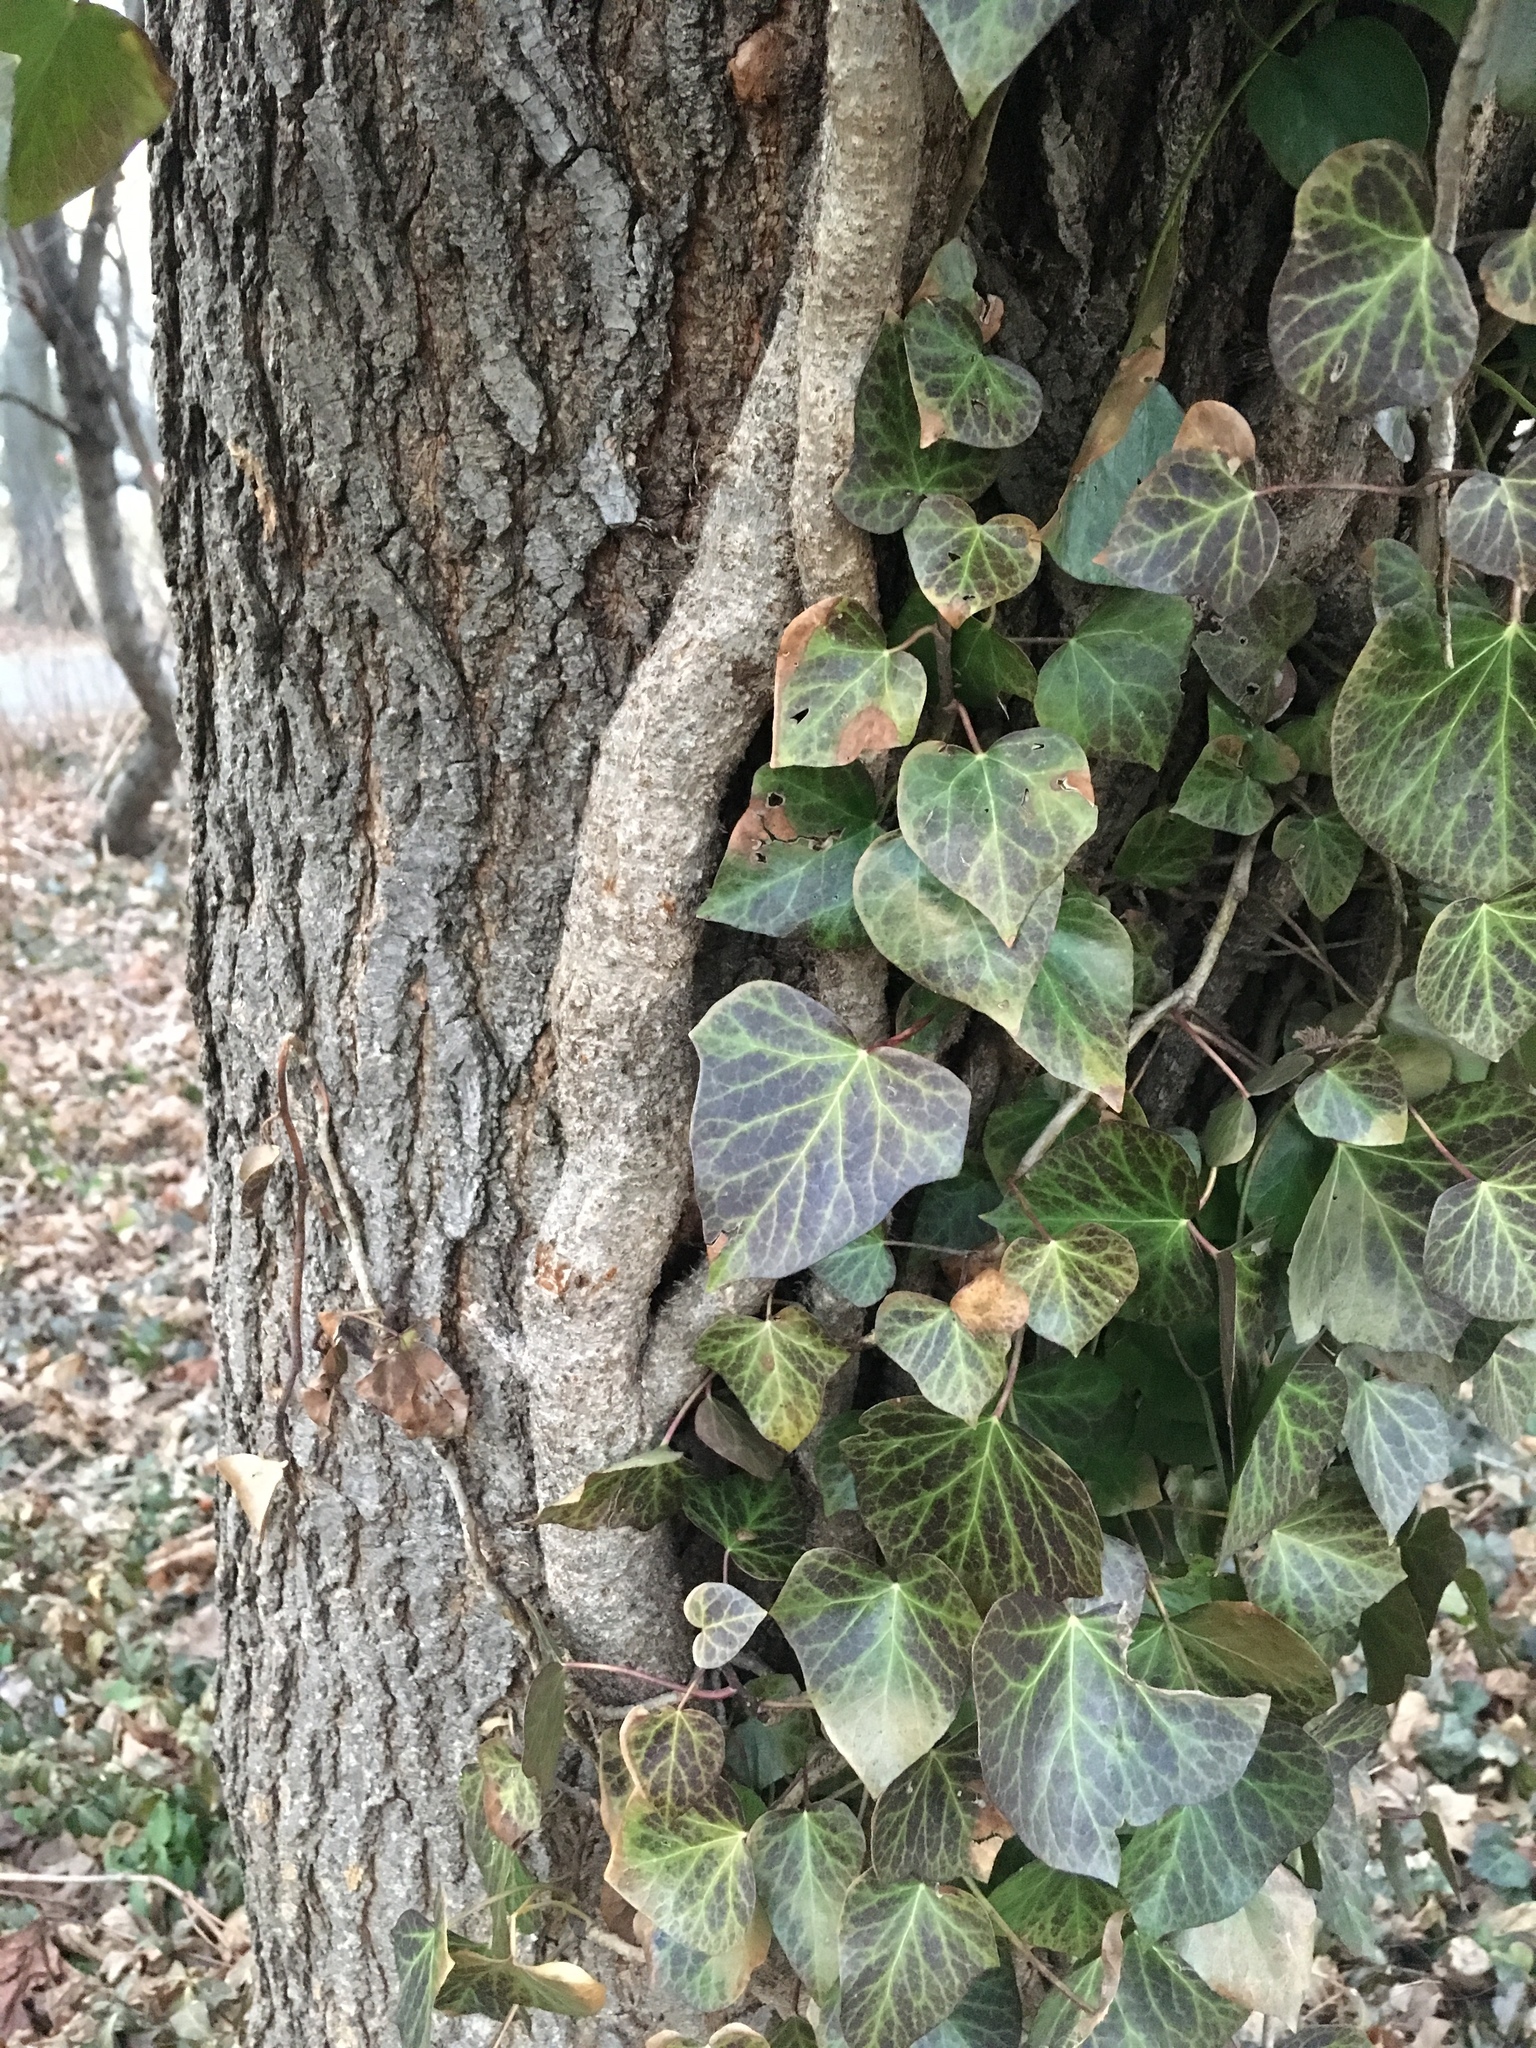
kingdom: Plantae
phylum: Tracheophyta
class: Magnoliopsida
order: Apiales
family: Araliaceae
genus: Hedera
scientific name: Hedera helix
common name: Ivy
